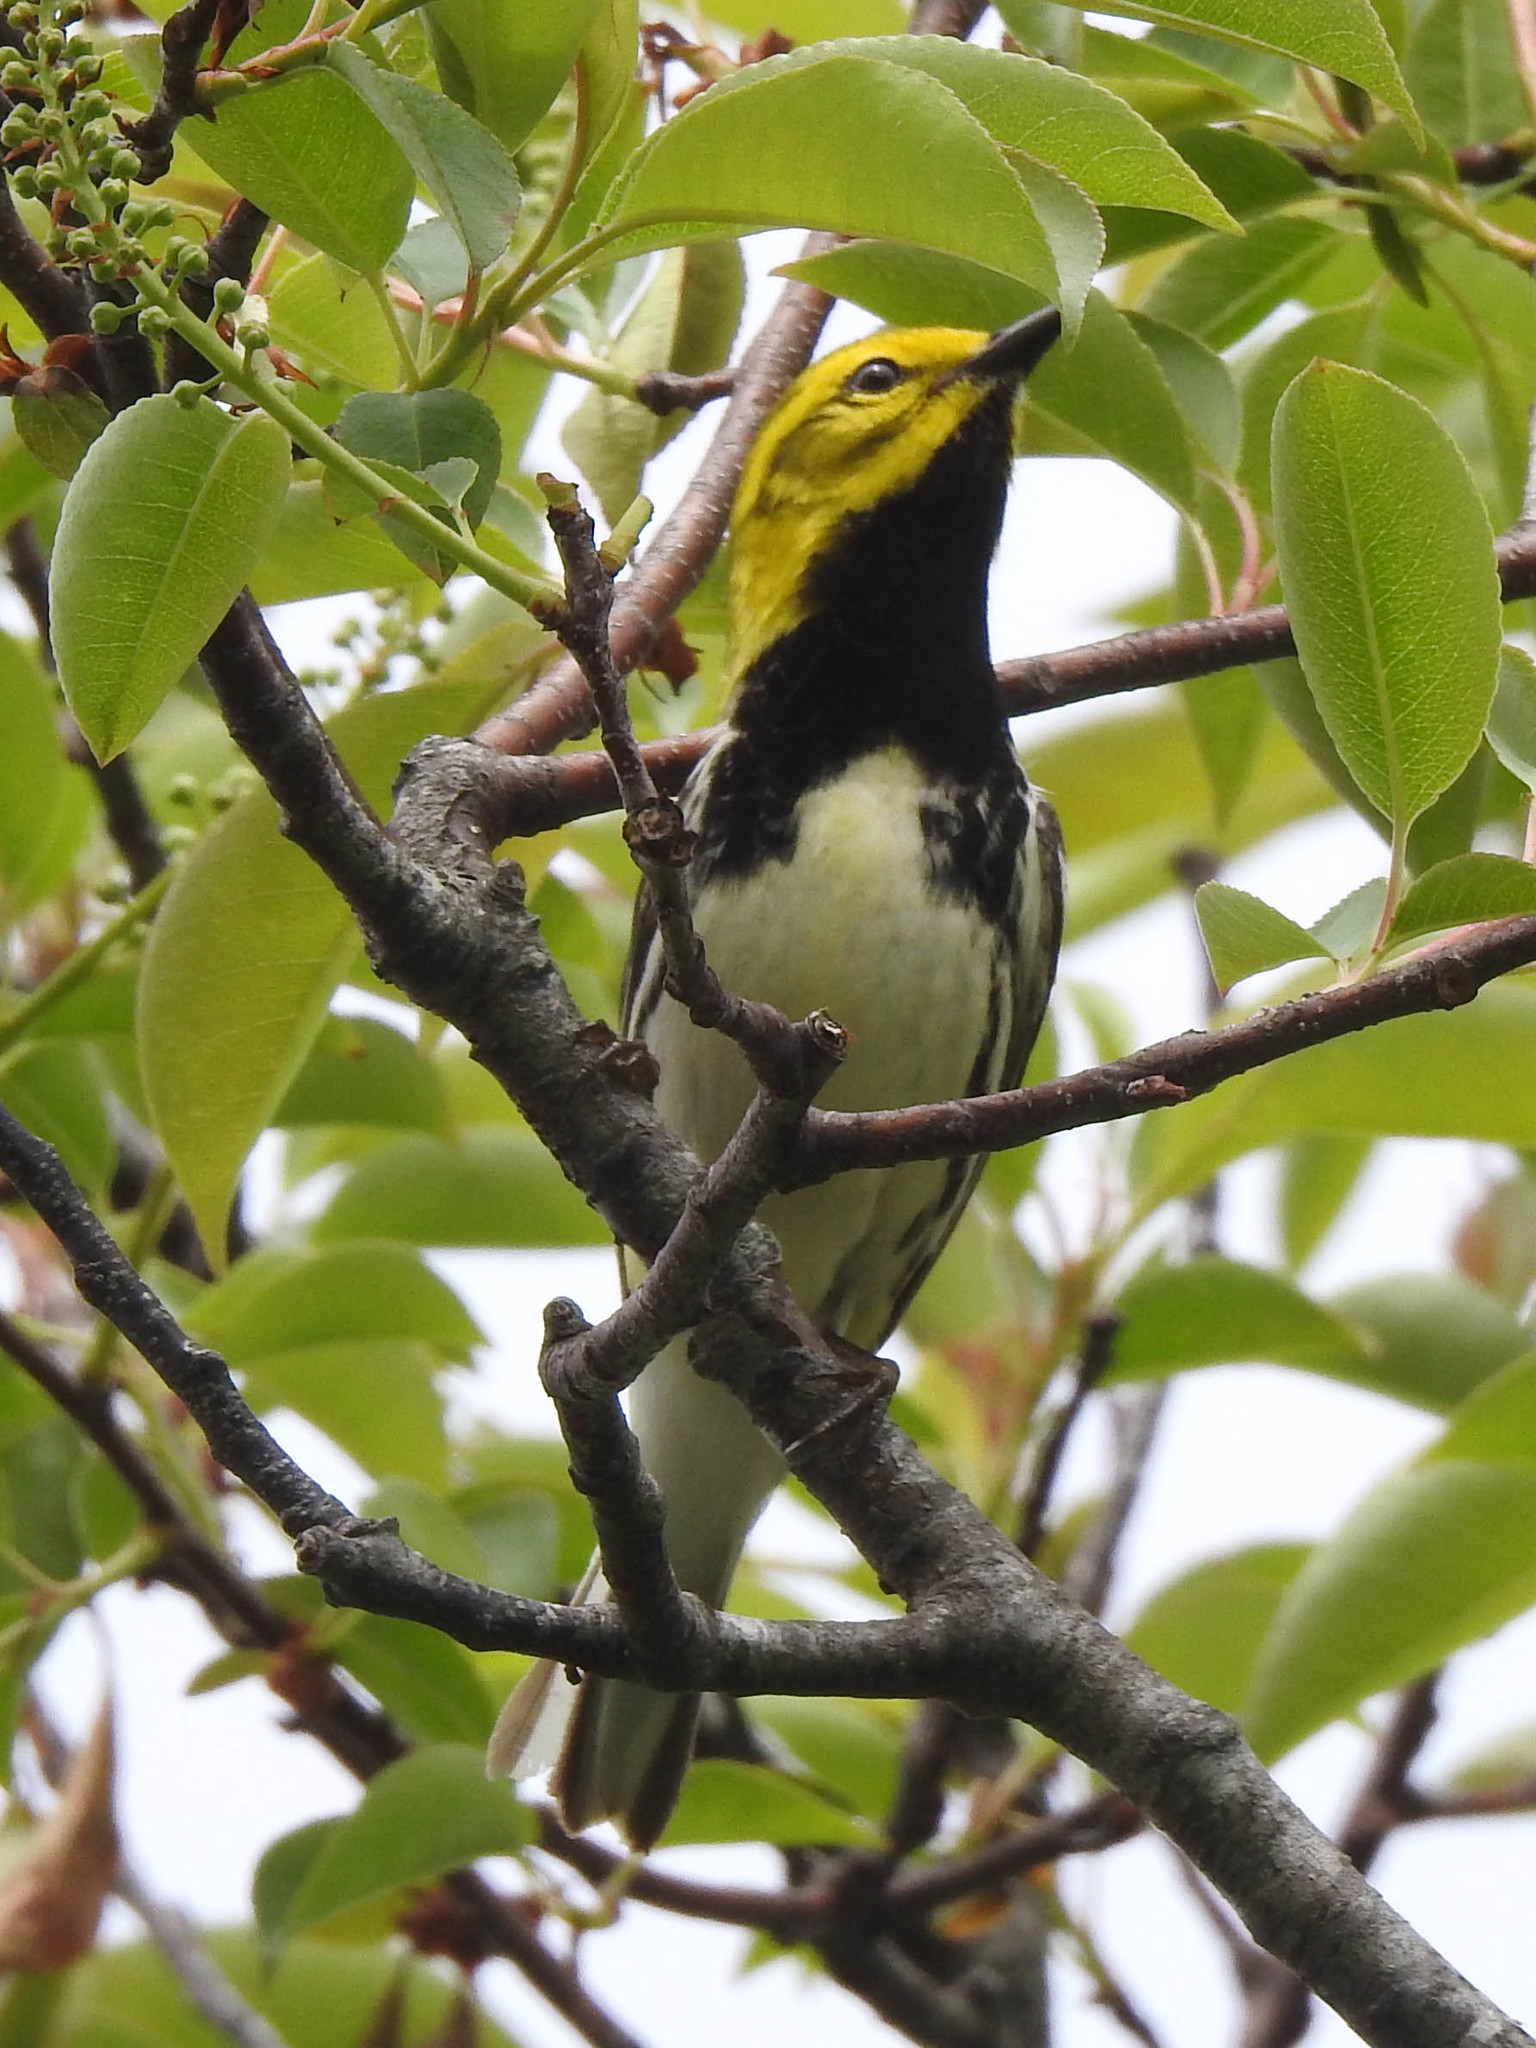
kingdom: Animalia
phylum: Chordata
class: Aves
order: Passeriformes
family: Parulidae
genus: Setophaga
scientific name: Setophaga virens
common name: Black-throated green warbler
